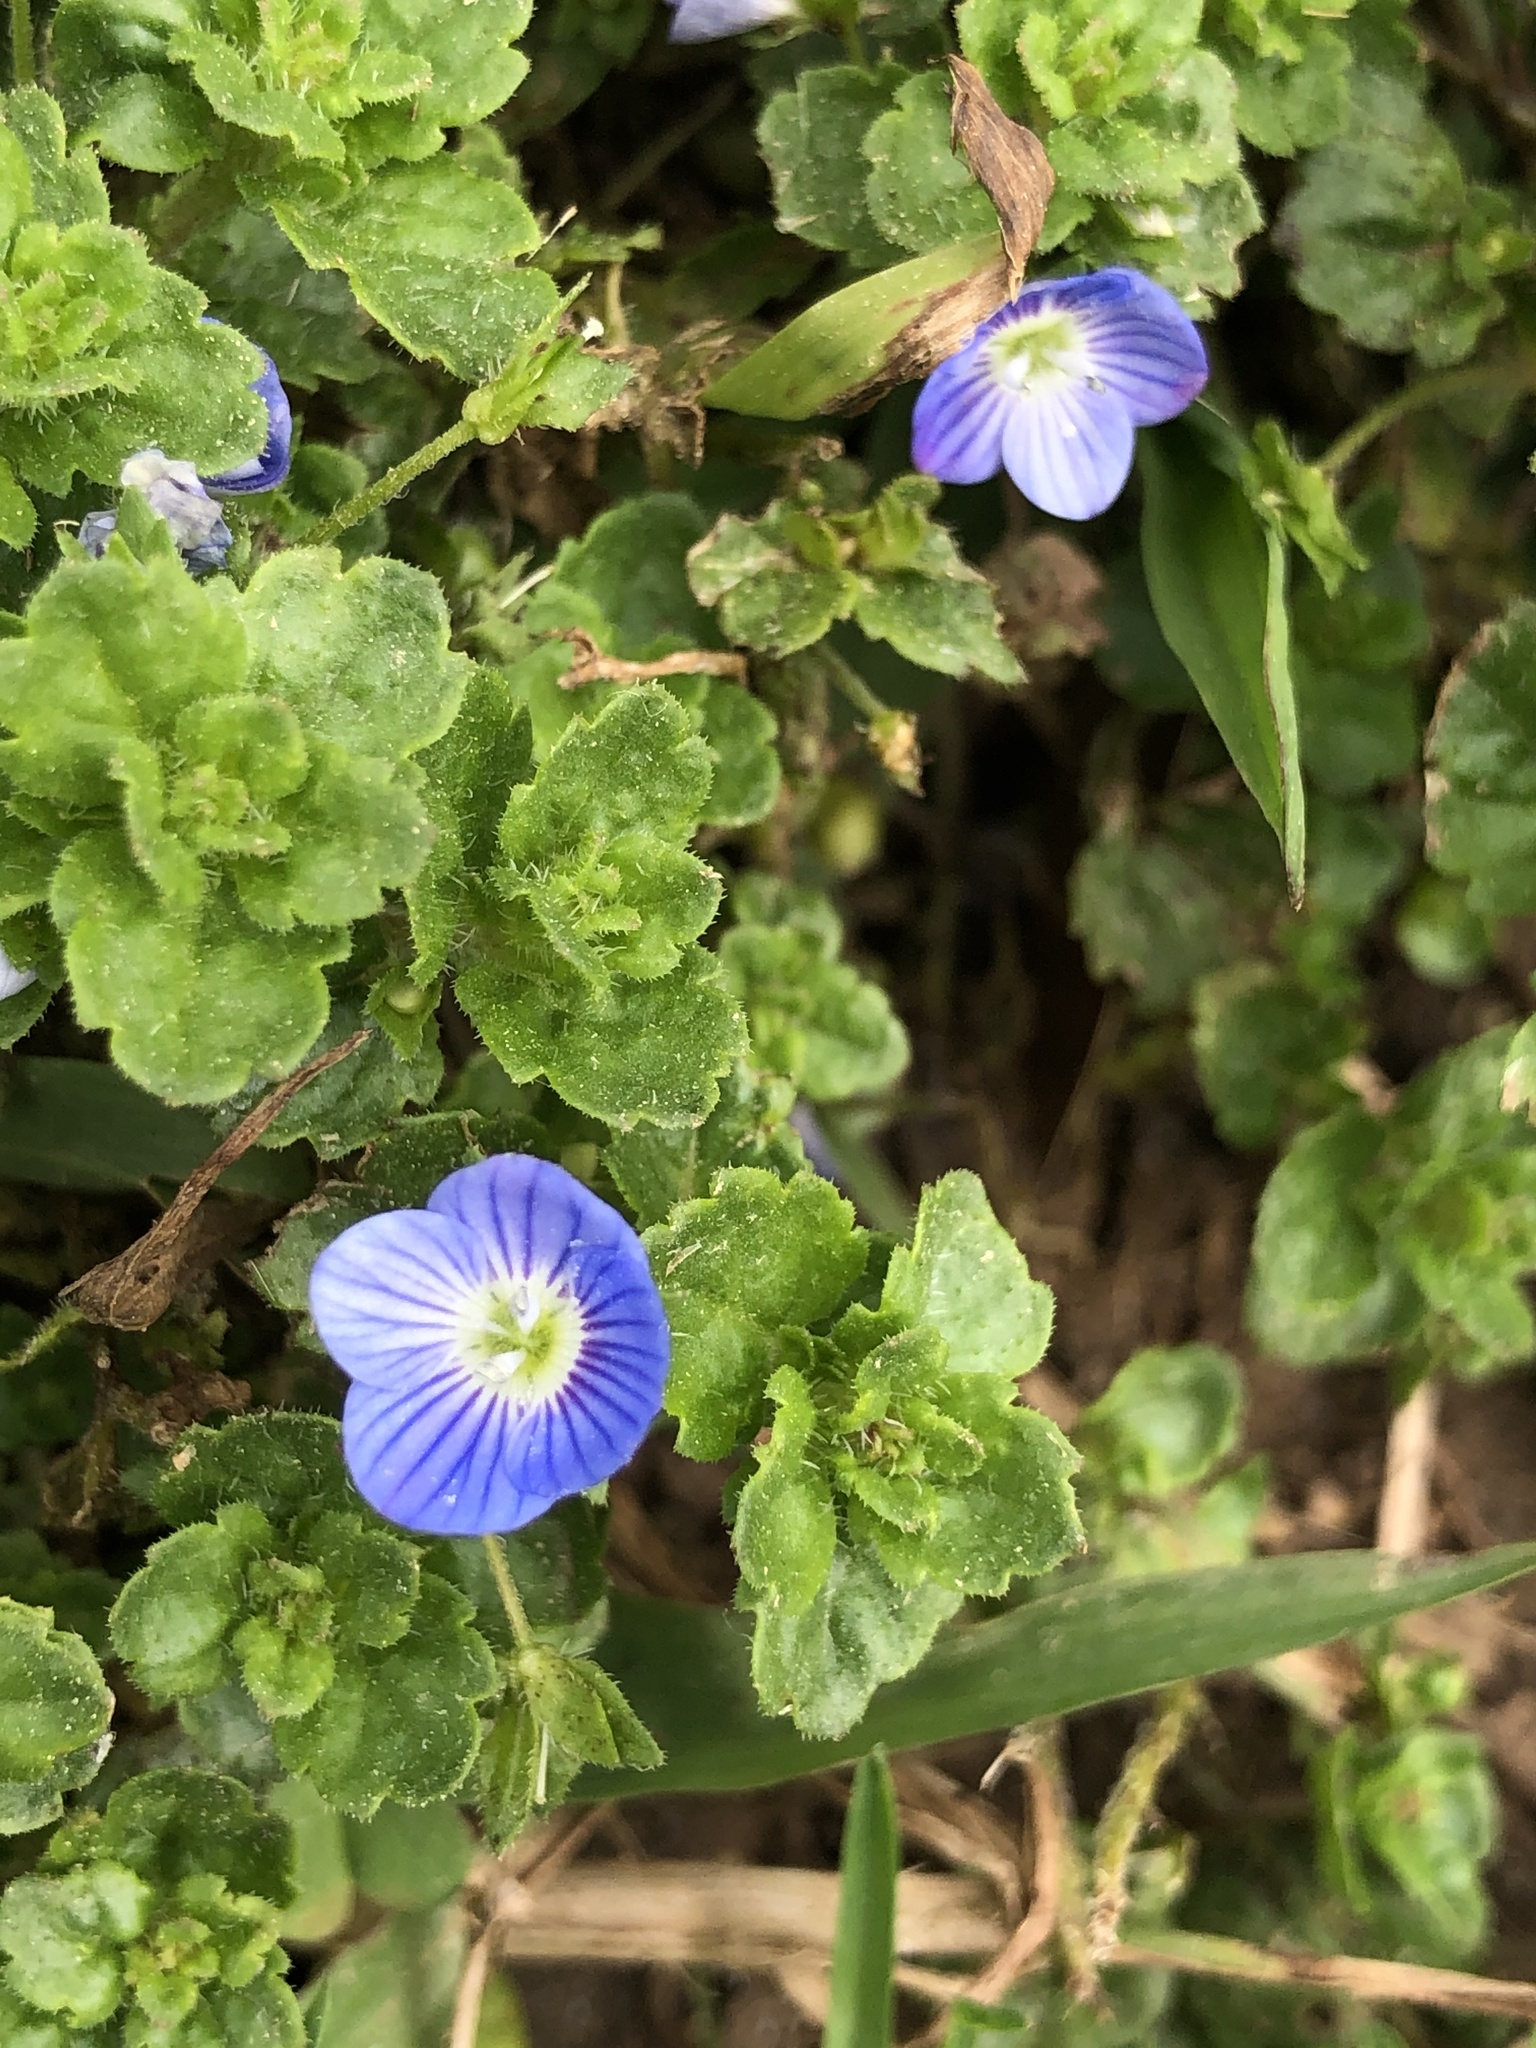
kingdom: Plantae
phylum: Tracheophyta
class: Magnoliopsida
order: Lamiales
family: Plantaginaceae
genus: Veronica
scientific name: Veronica persica
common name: Common field-speedwell
